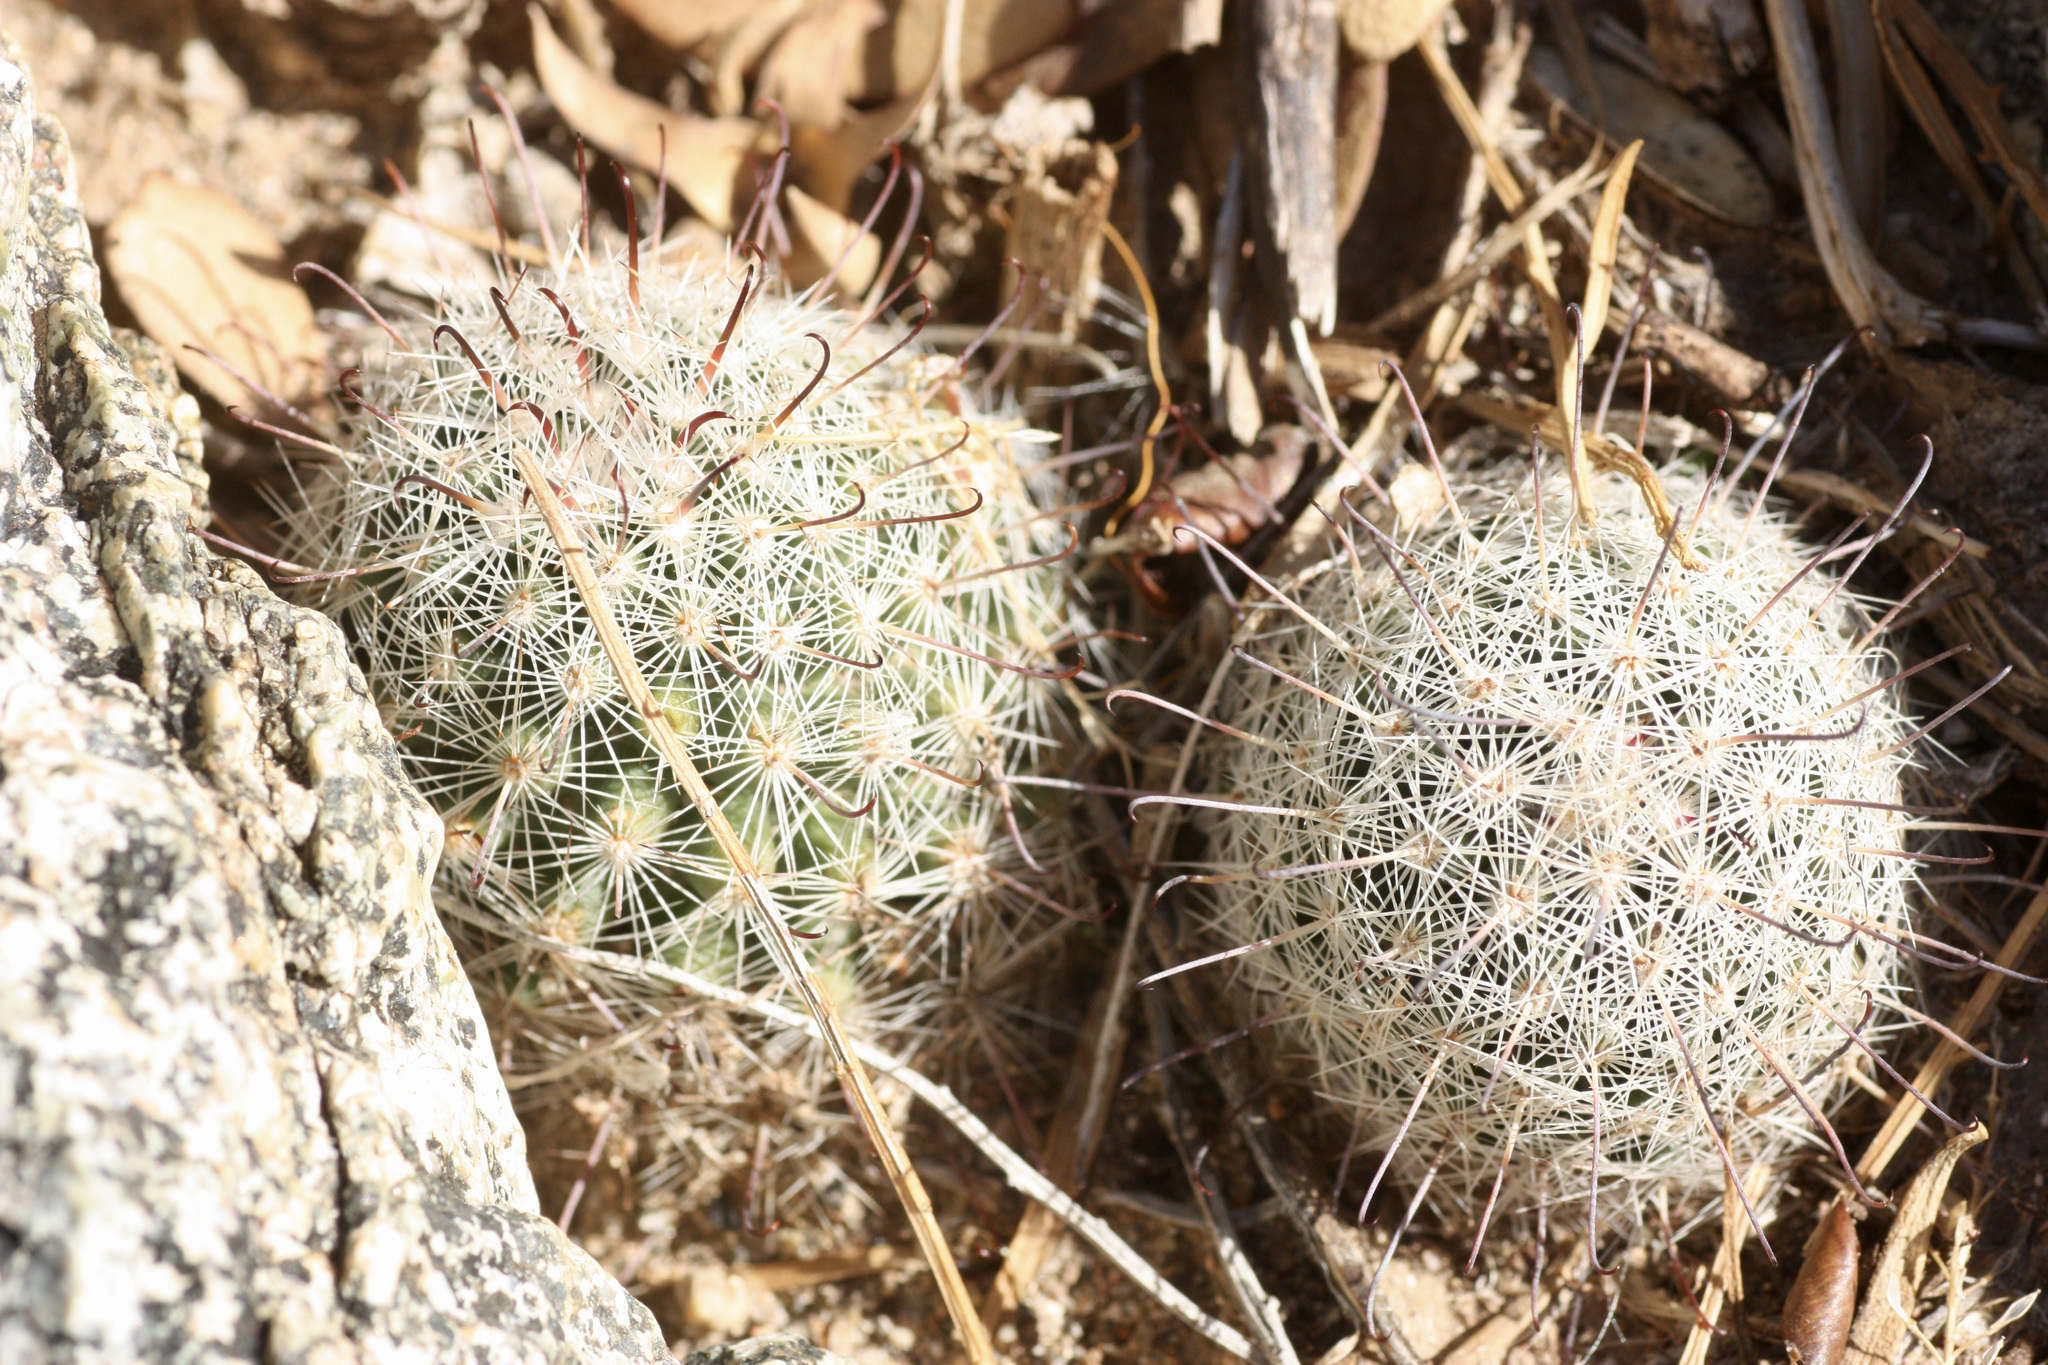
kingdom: Plantae
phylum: Tracheophyta
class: Magnoliopsida
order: Caryophyllales
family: Cactaceae
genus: Cochemiea
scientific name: Cochemiea grahamii
